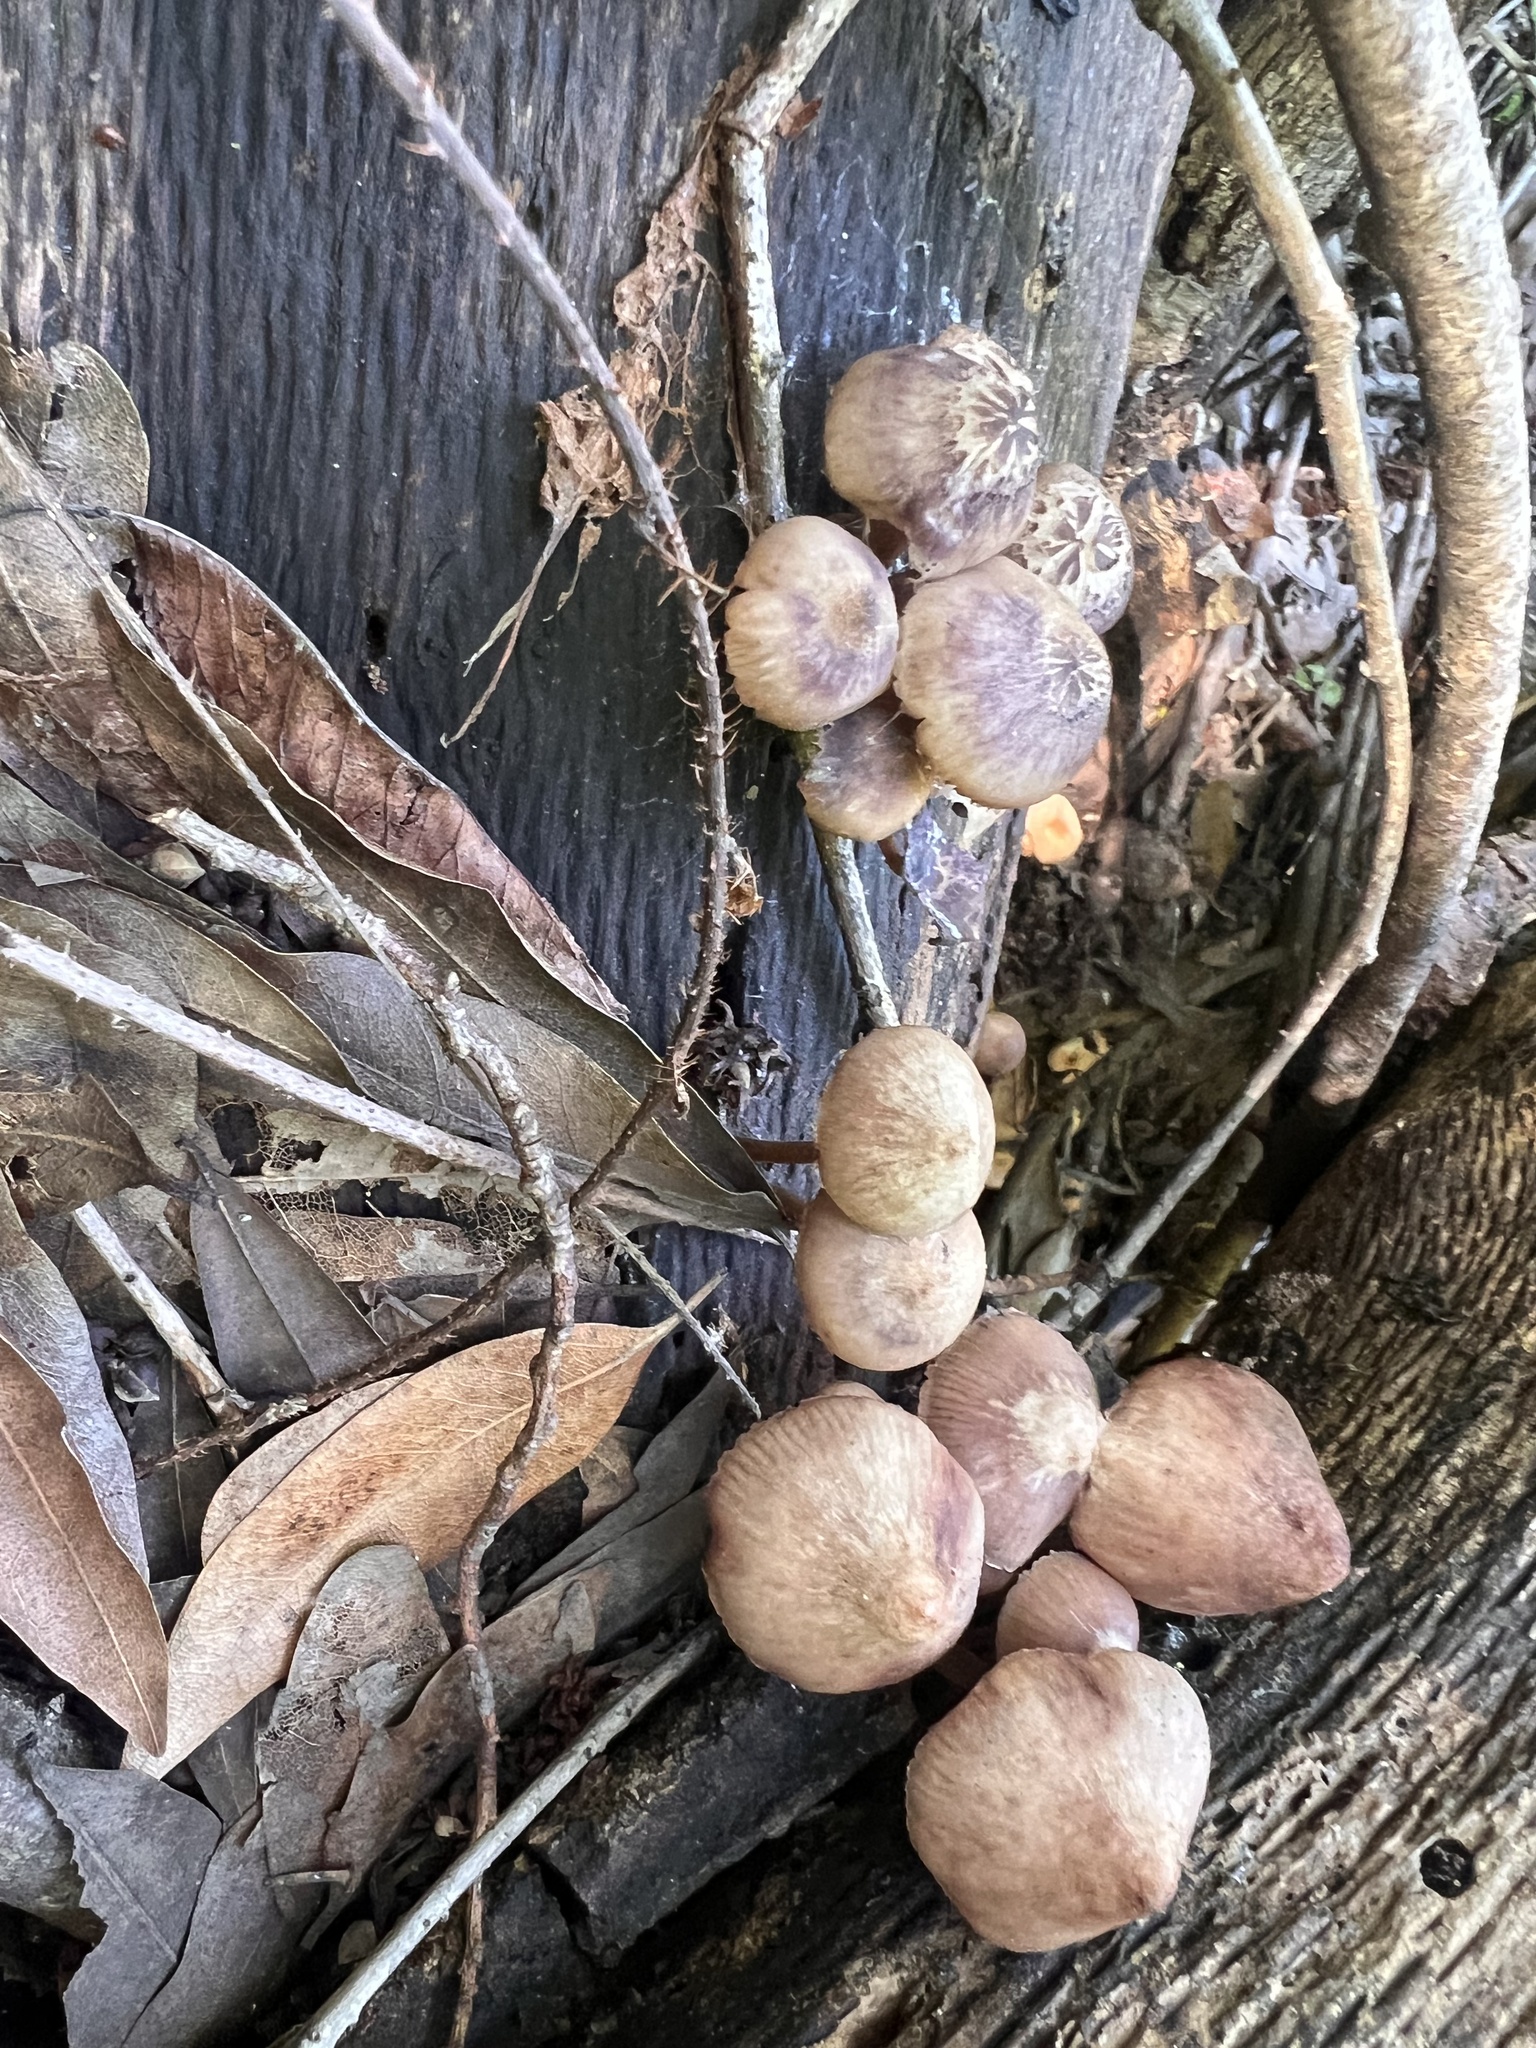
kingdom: Fungi
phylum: Basidiomycota
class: Agaricomycetes
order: Agaricales
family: Mycenaceae
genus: Mycena
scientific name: Mycena haematopus
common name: Burgundydrop bonnet
